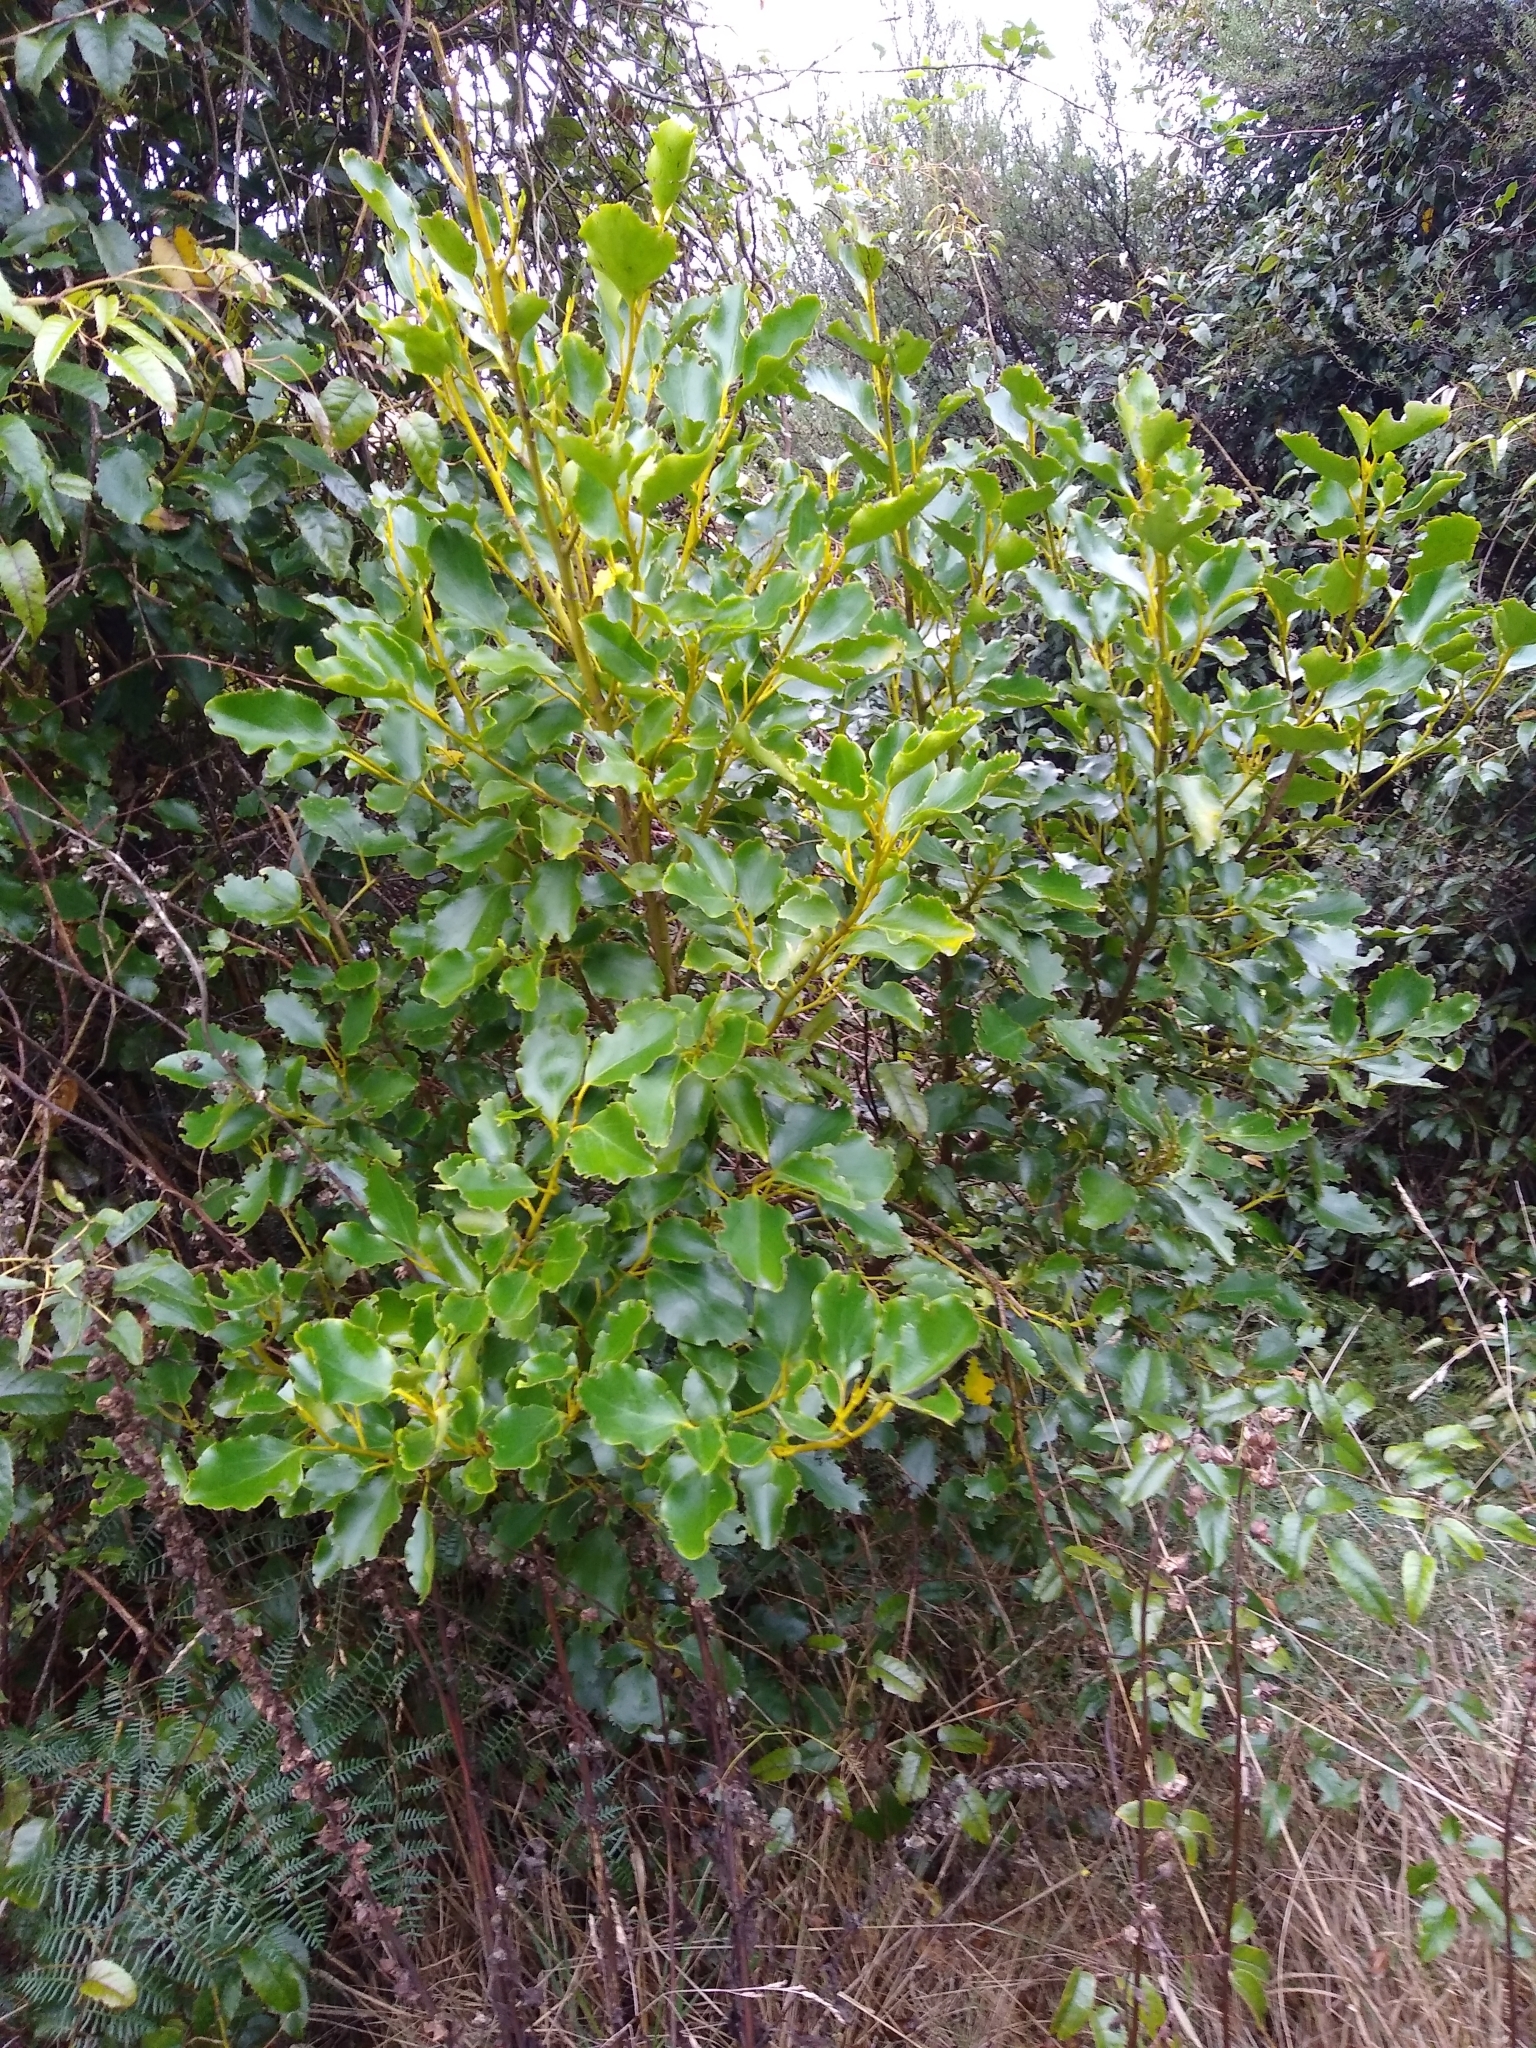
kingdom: Plantae
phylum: Tracheophyta
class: Magnoliopsida
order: Apiales
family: Griseliniaceae
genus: Griselinia
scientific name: Griselinia littoralis
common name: New zealand broadleaf
